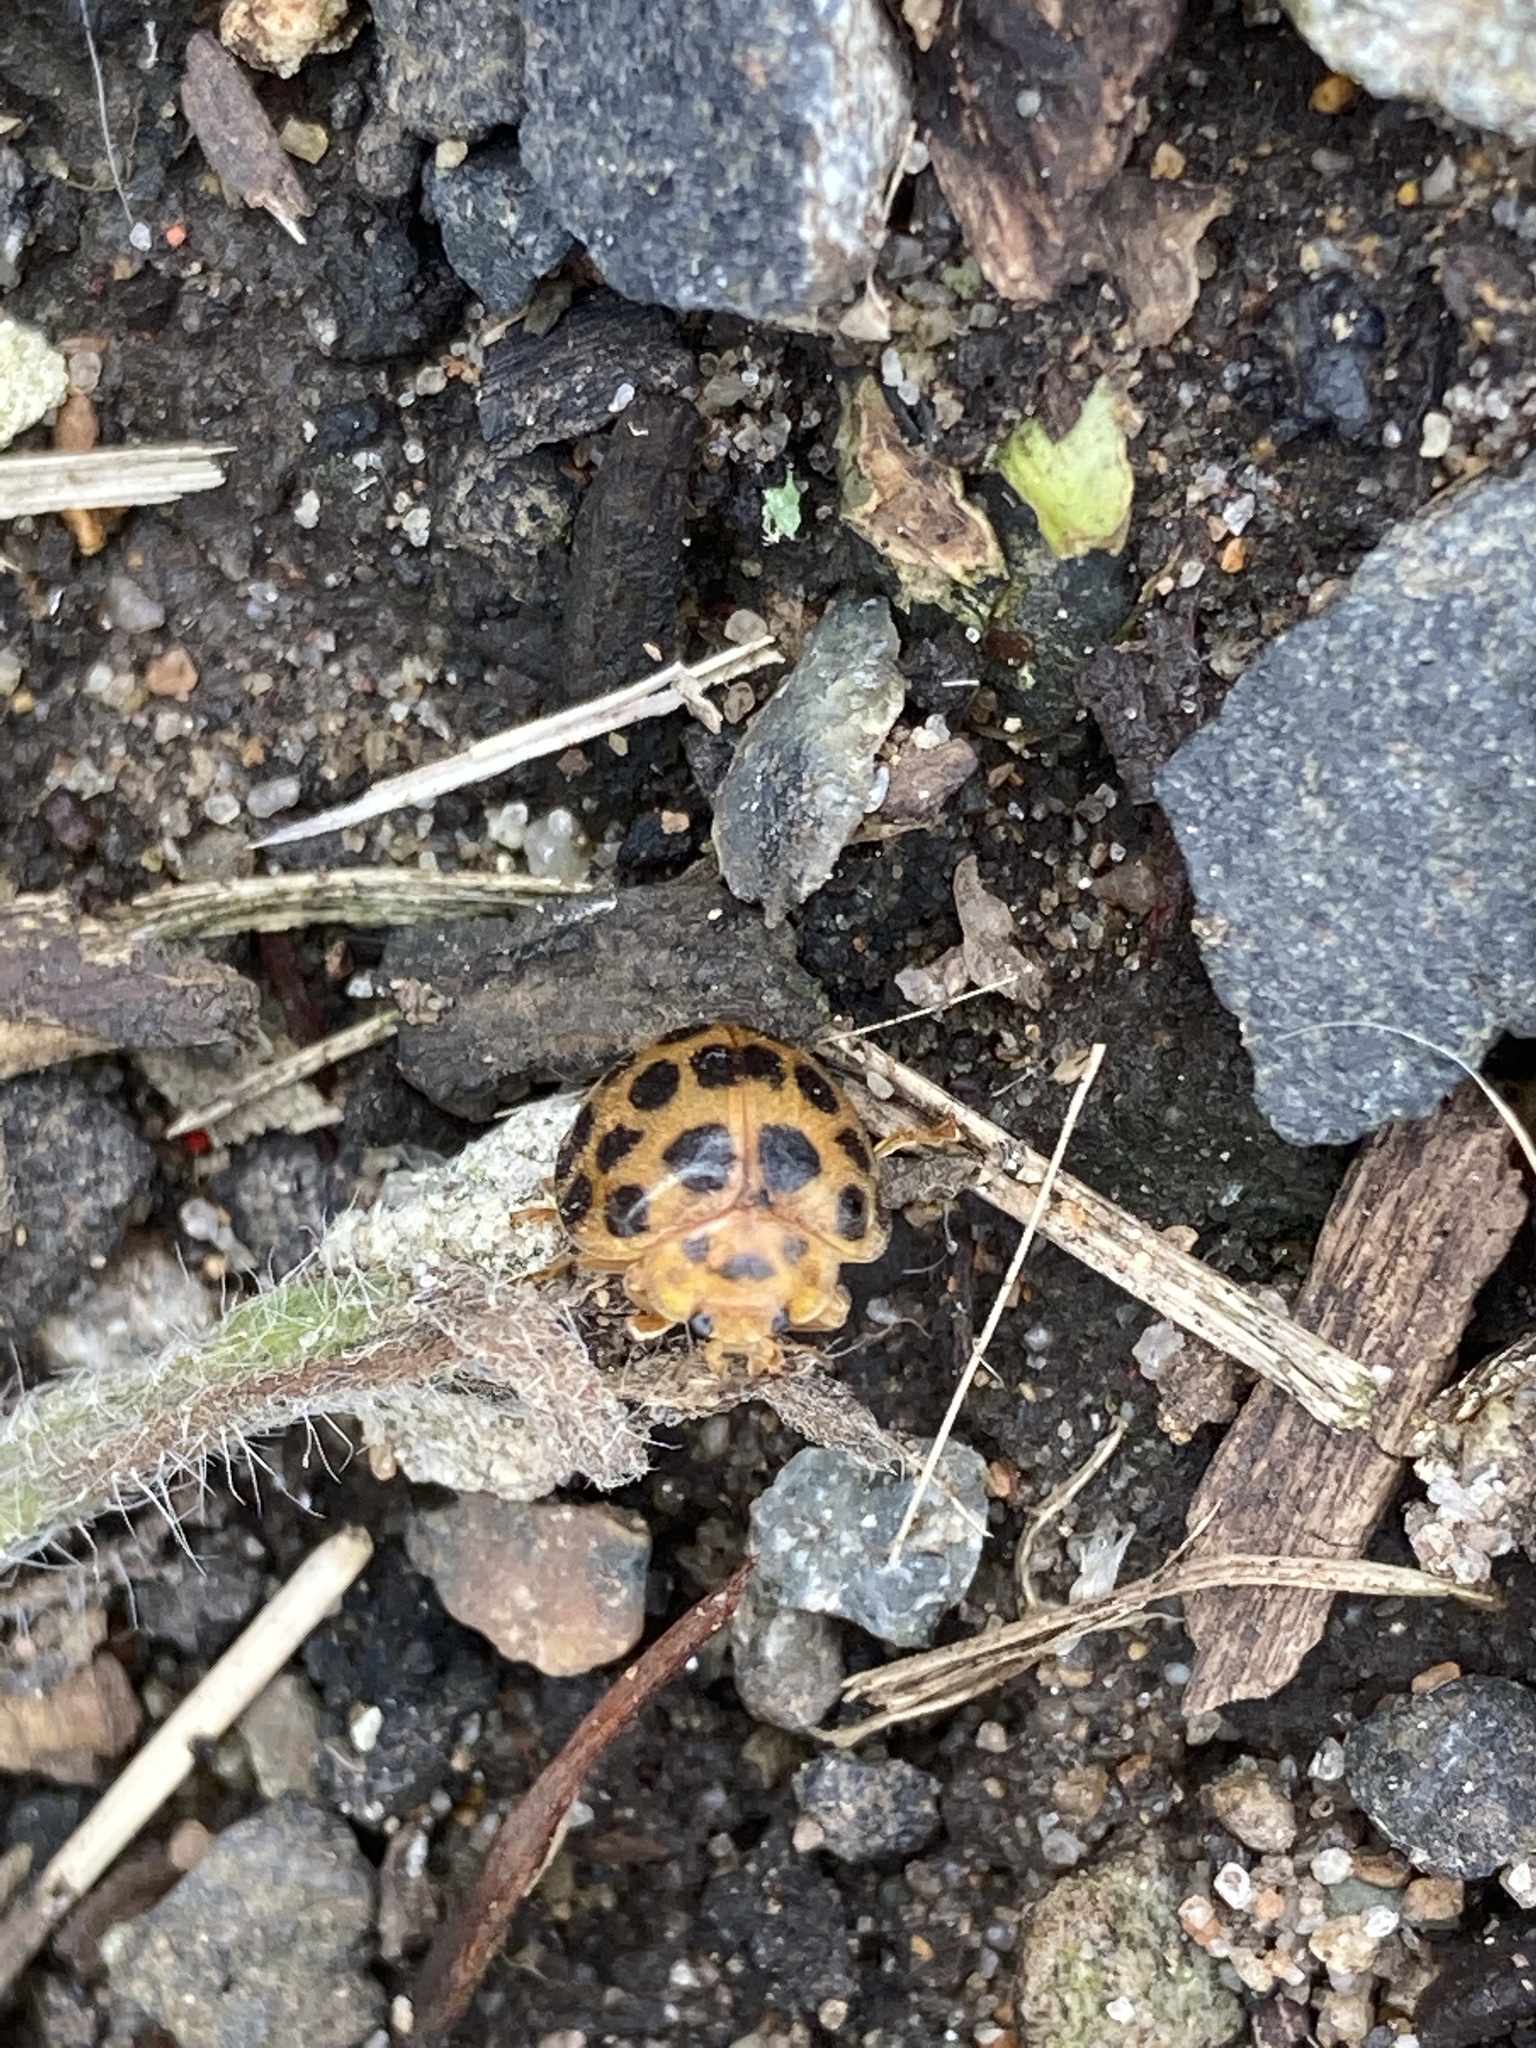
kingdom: Animalia
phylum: Arthropoda
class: Insecta
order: Coleoptera
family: Coccinellidae
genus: Henosepilachna
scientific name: Henosepilachna vigintioctopunctata
